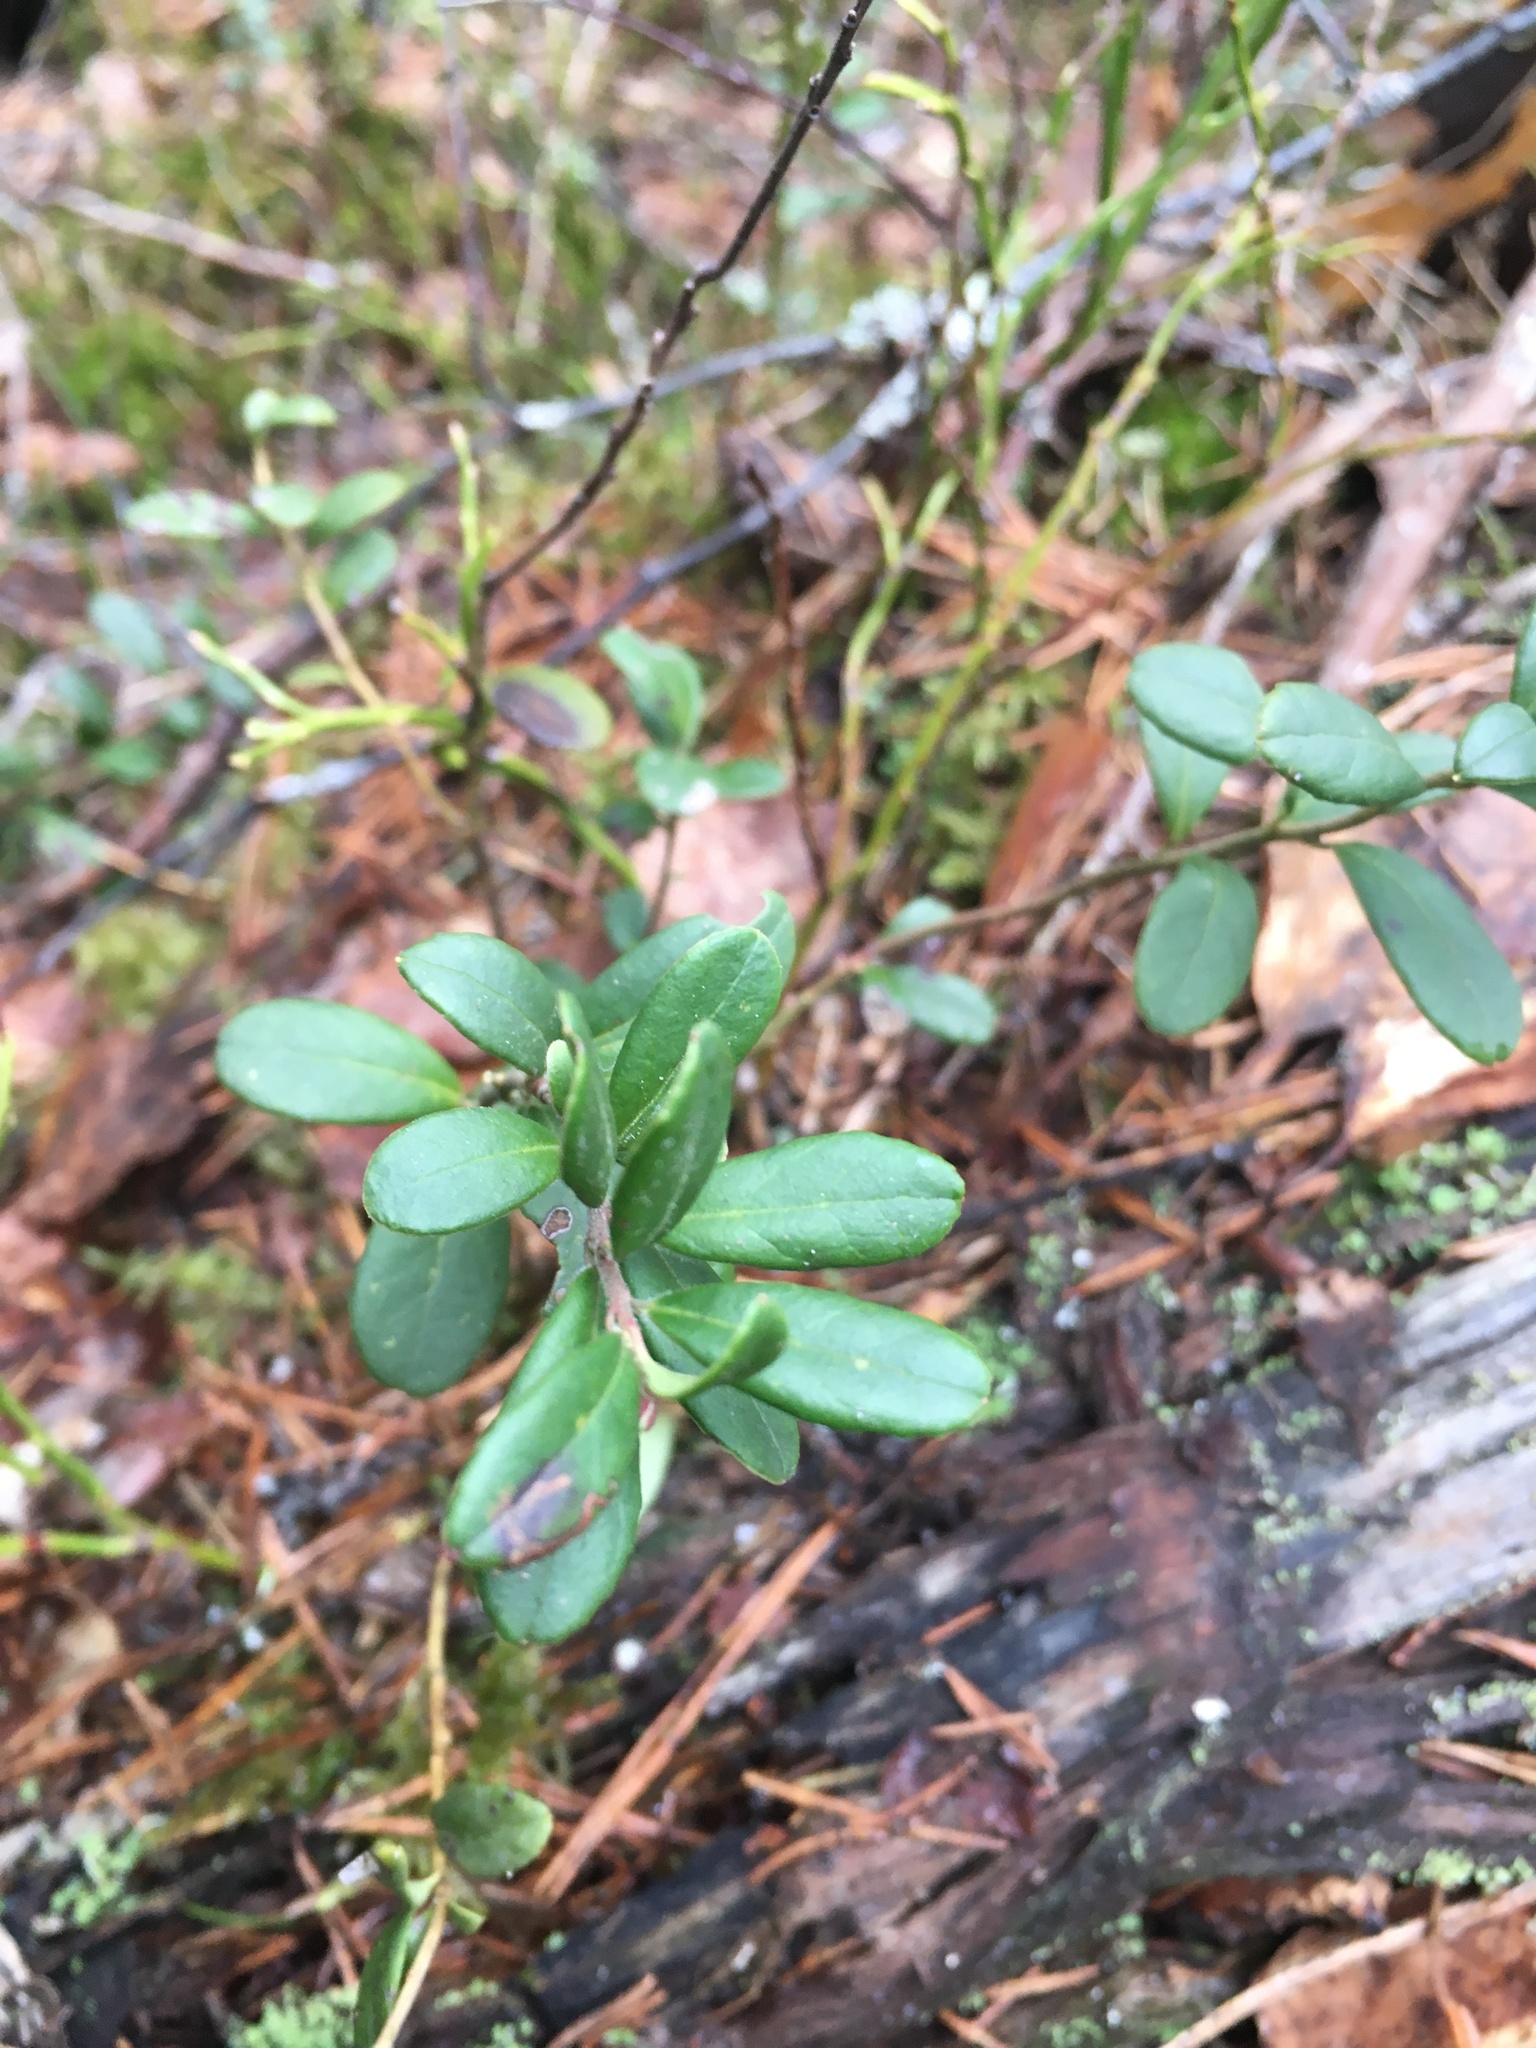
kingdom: Plantae
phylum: Tracheophyta
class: Magnoliopsida
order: Ericales
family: Ericaceae
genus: Vaccinium
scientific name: Vaccinium vitis-idaea
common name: Cowberry
